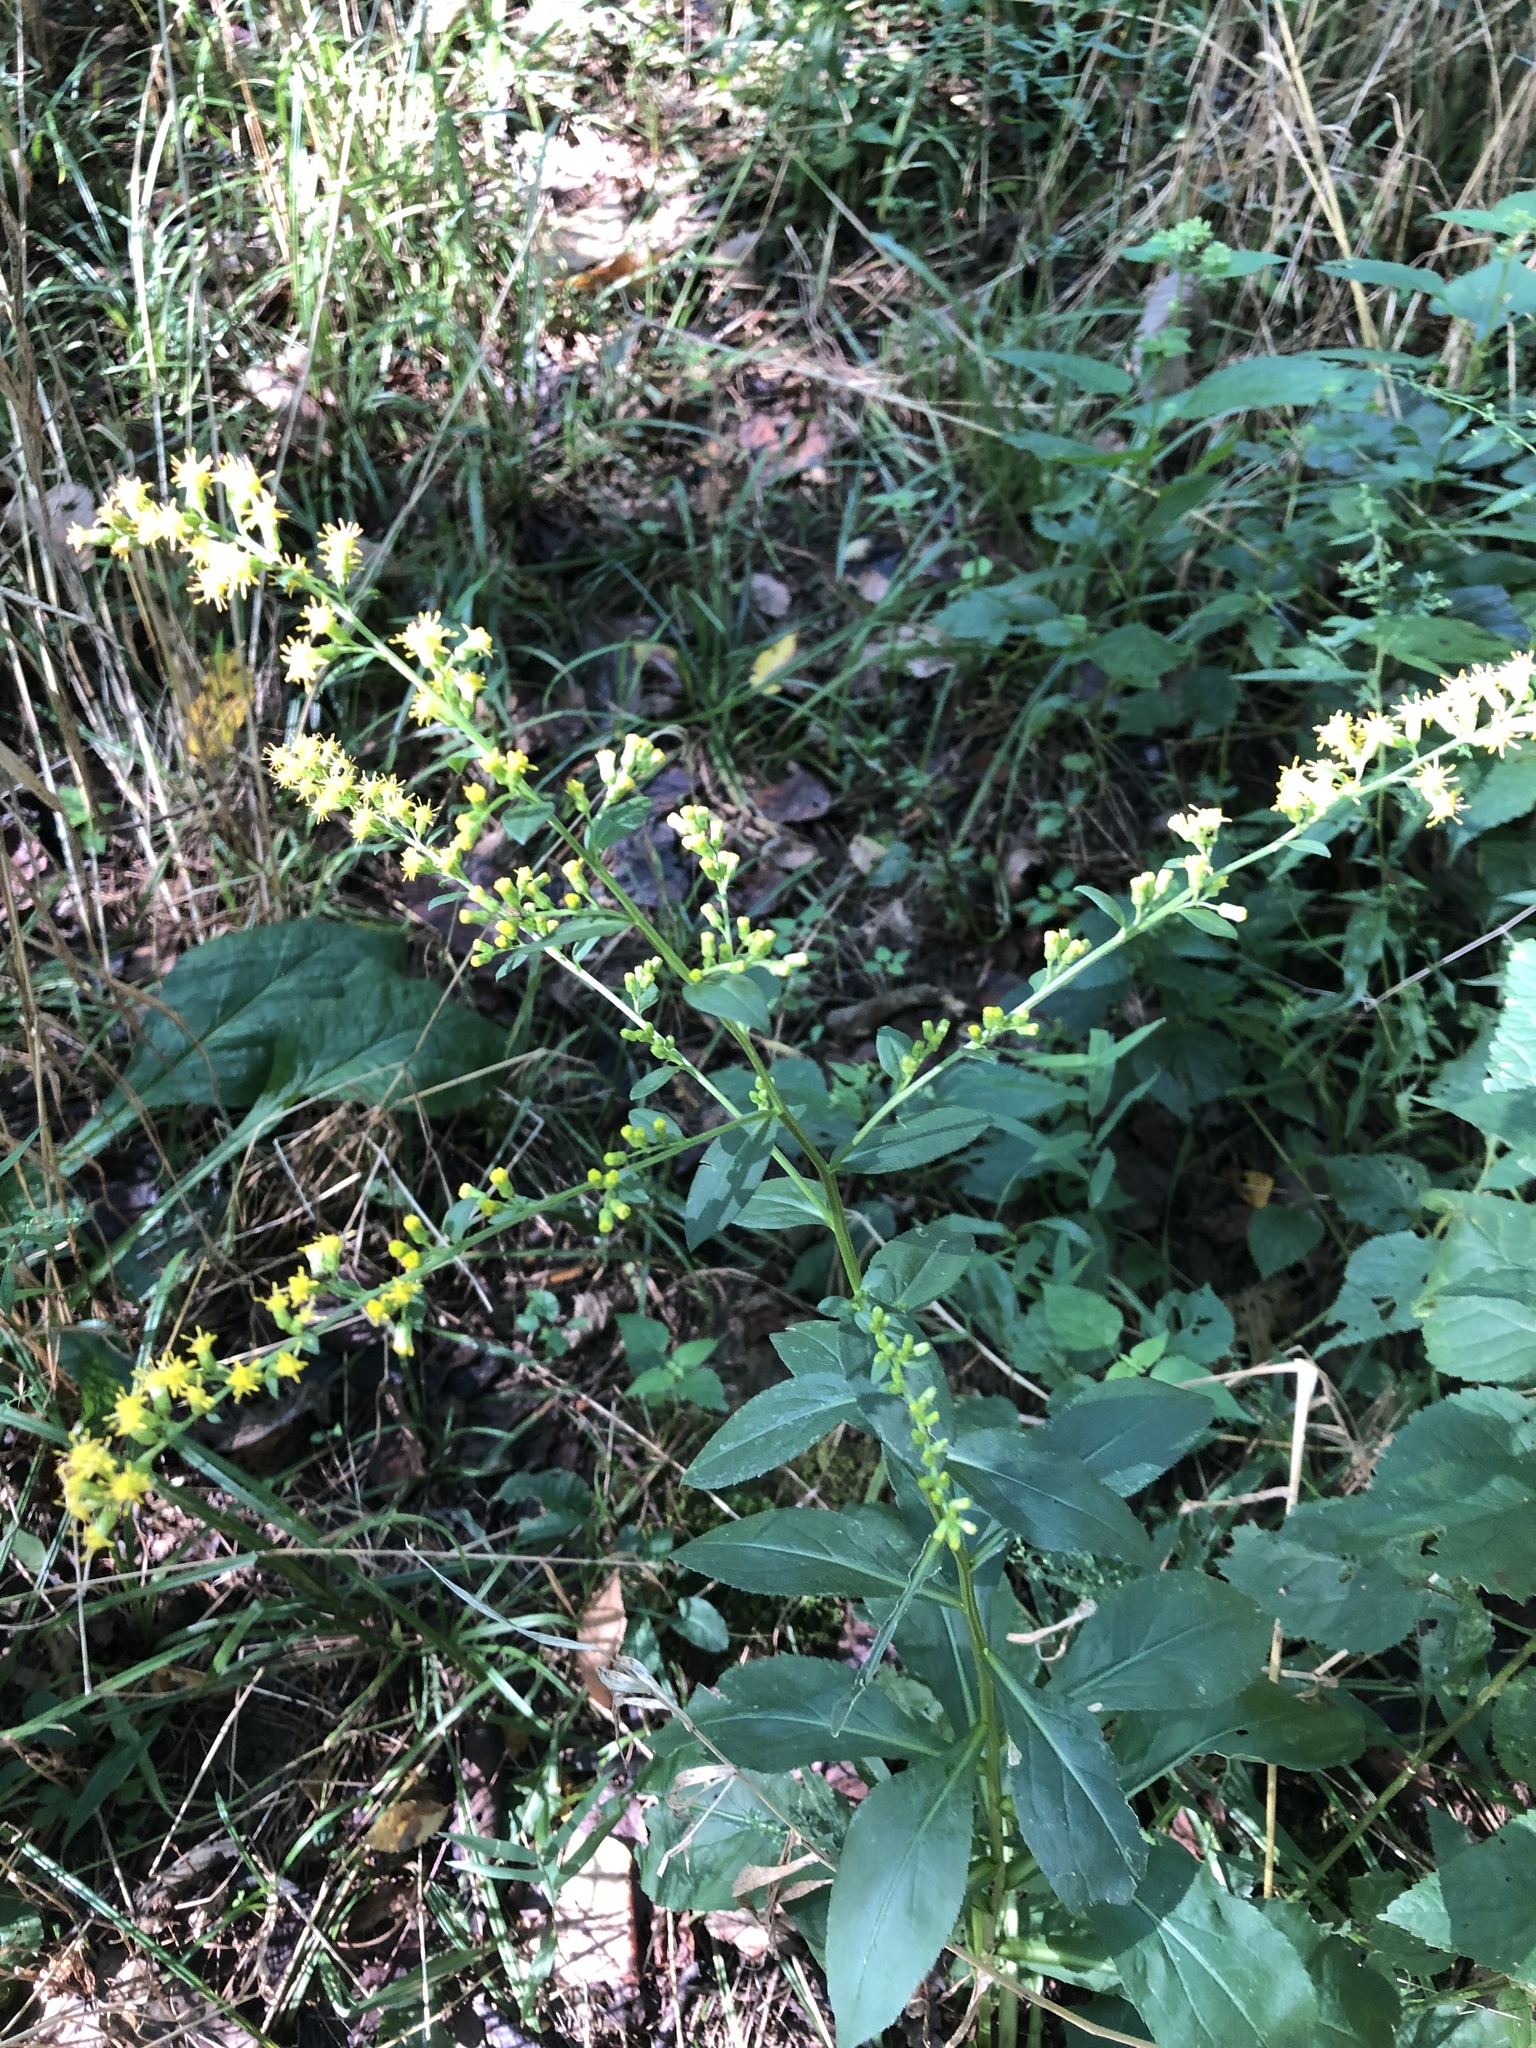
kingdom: Plantae
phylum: Tracheophyta
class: Magnoliopsida
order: Asterales
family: Asteraceae
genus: Solidago
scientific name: Solidago patula
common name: Rough-leaf goldenrod
